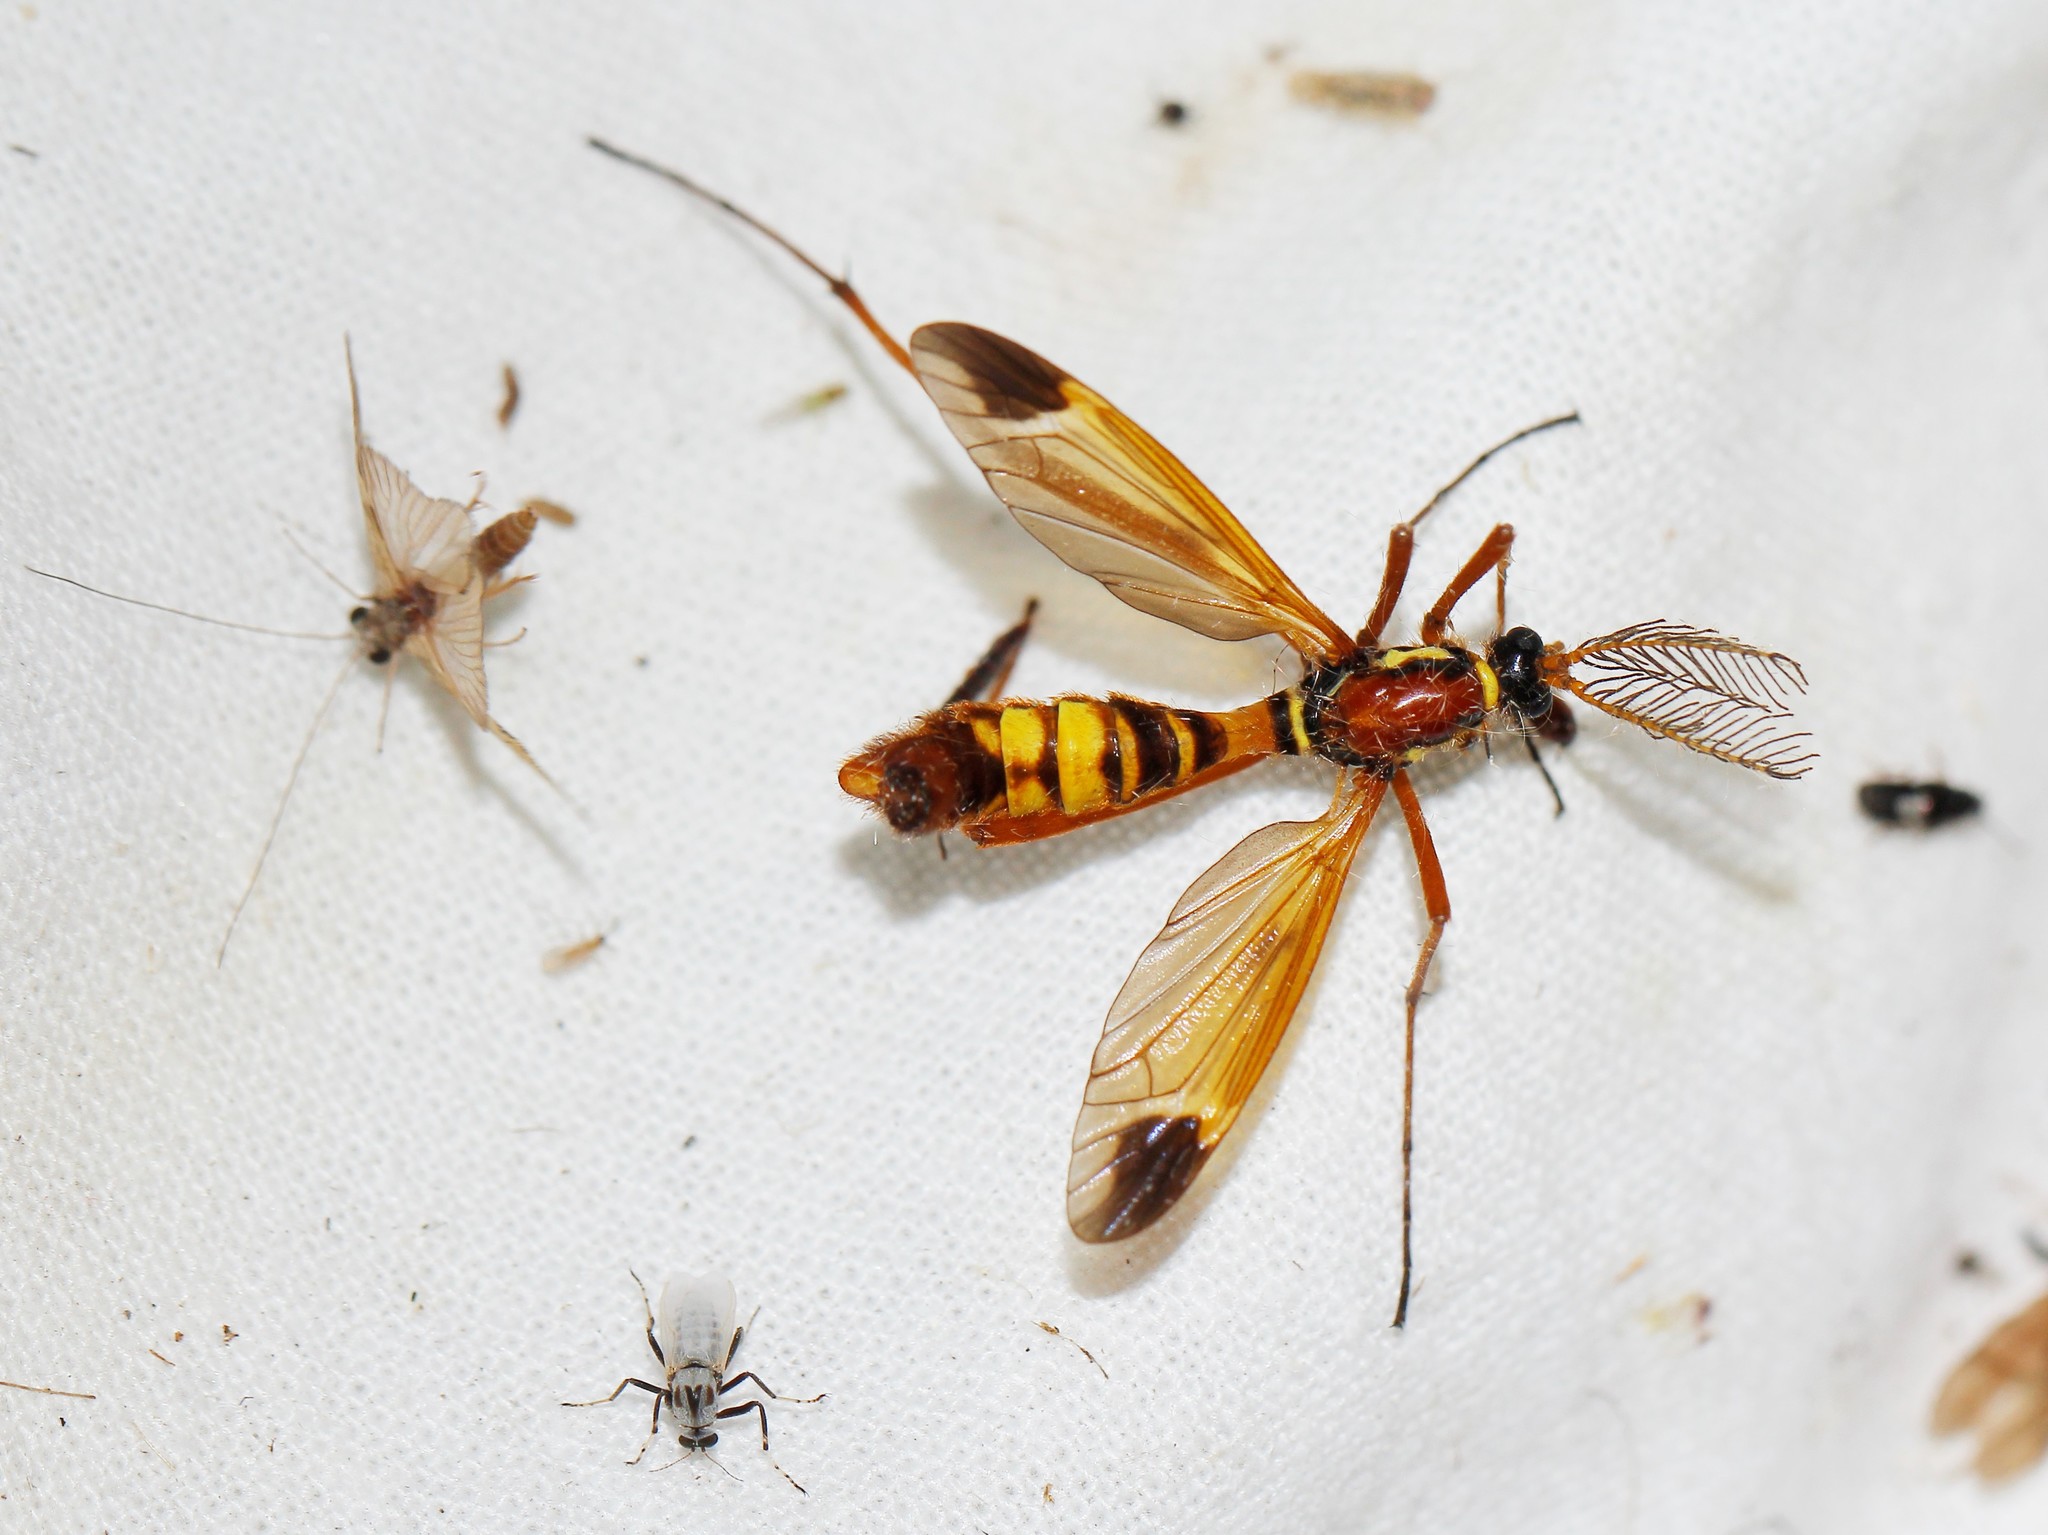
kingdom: Animalia
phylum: Arthropoda
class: Insecta
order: Diptera
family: Tipulidae
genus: Ctenophora
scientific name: Ctenophora ornata
